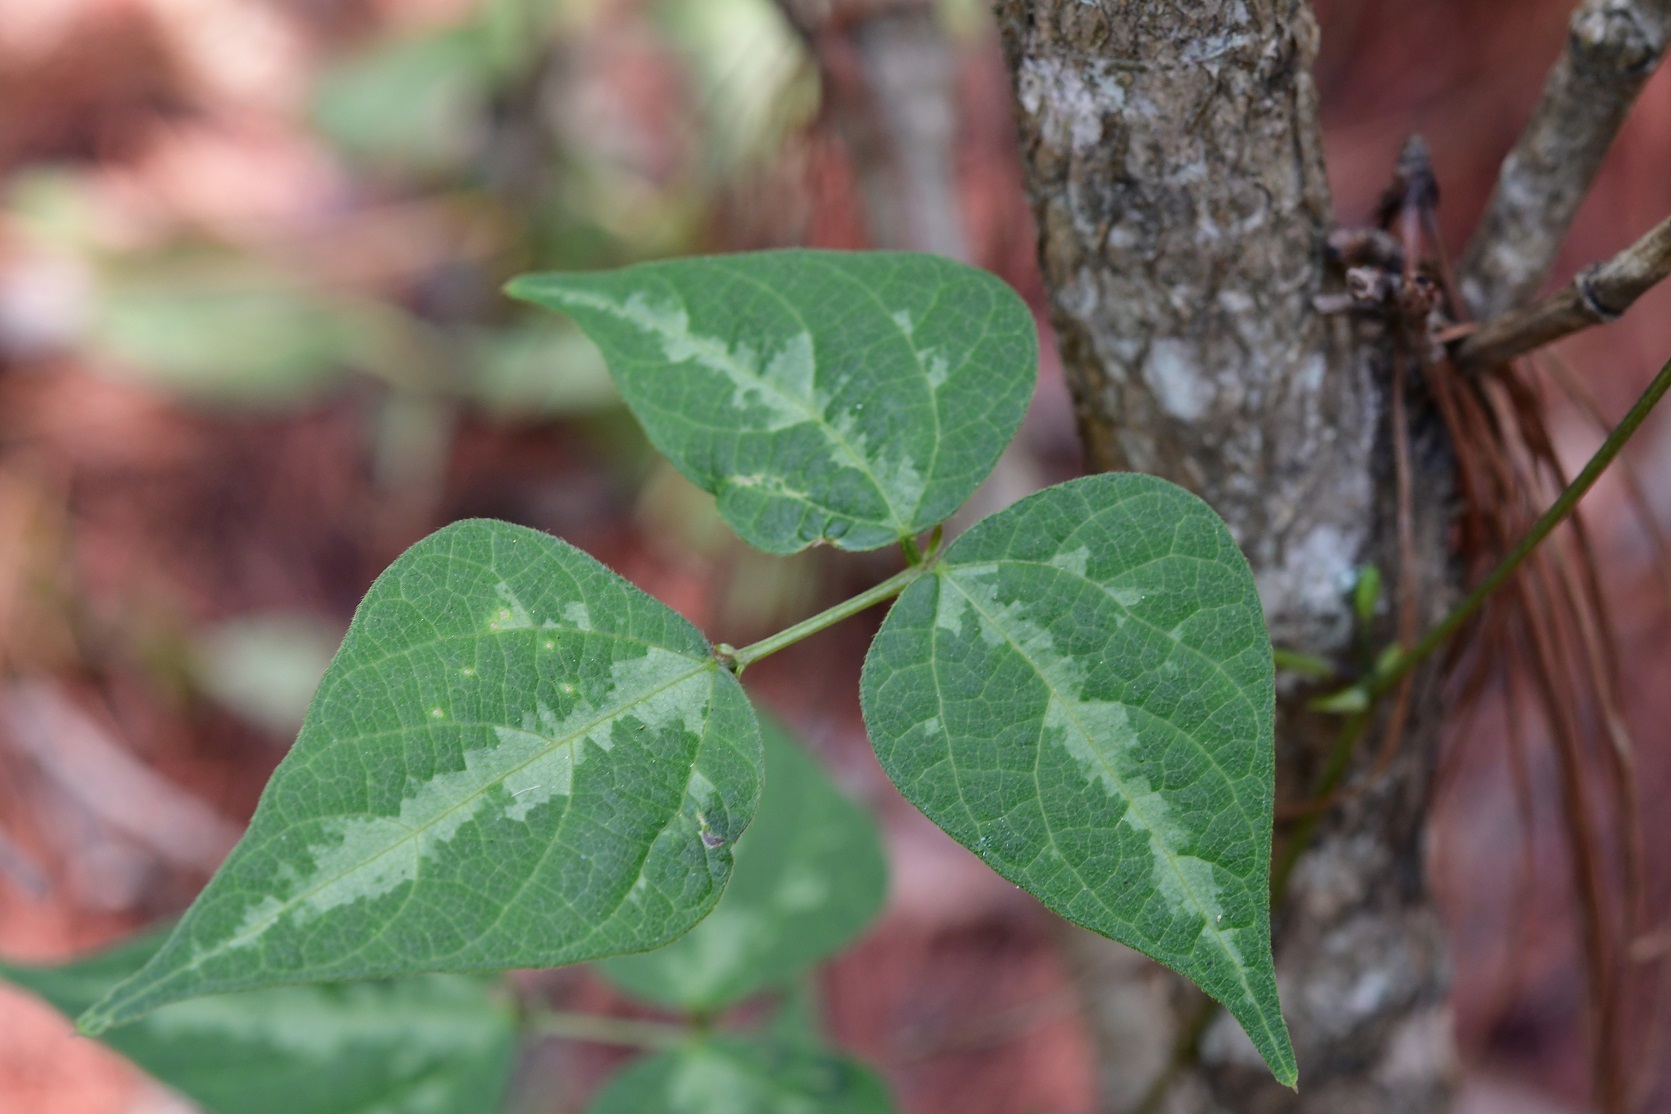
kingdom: Plantae
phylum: Tracheophyta
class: Magnoliopsida
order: Fabales
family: Fabaceae
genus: Phaseolus
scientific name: Phaseolus coccineus
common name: Runner bean
